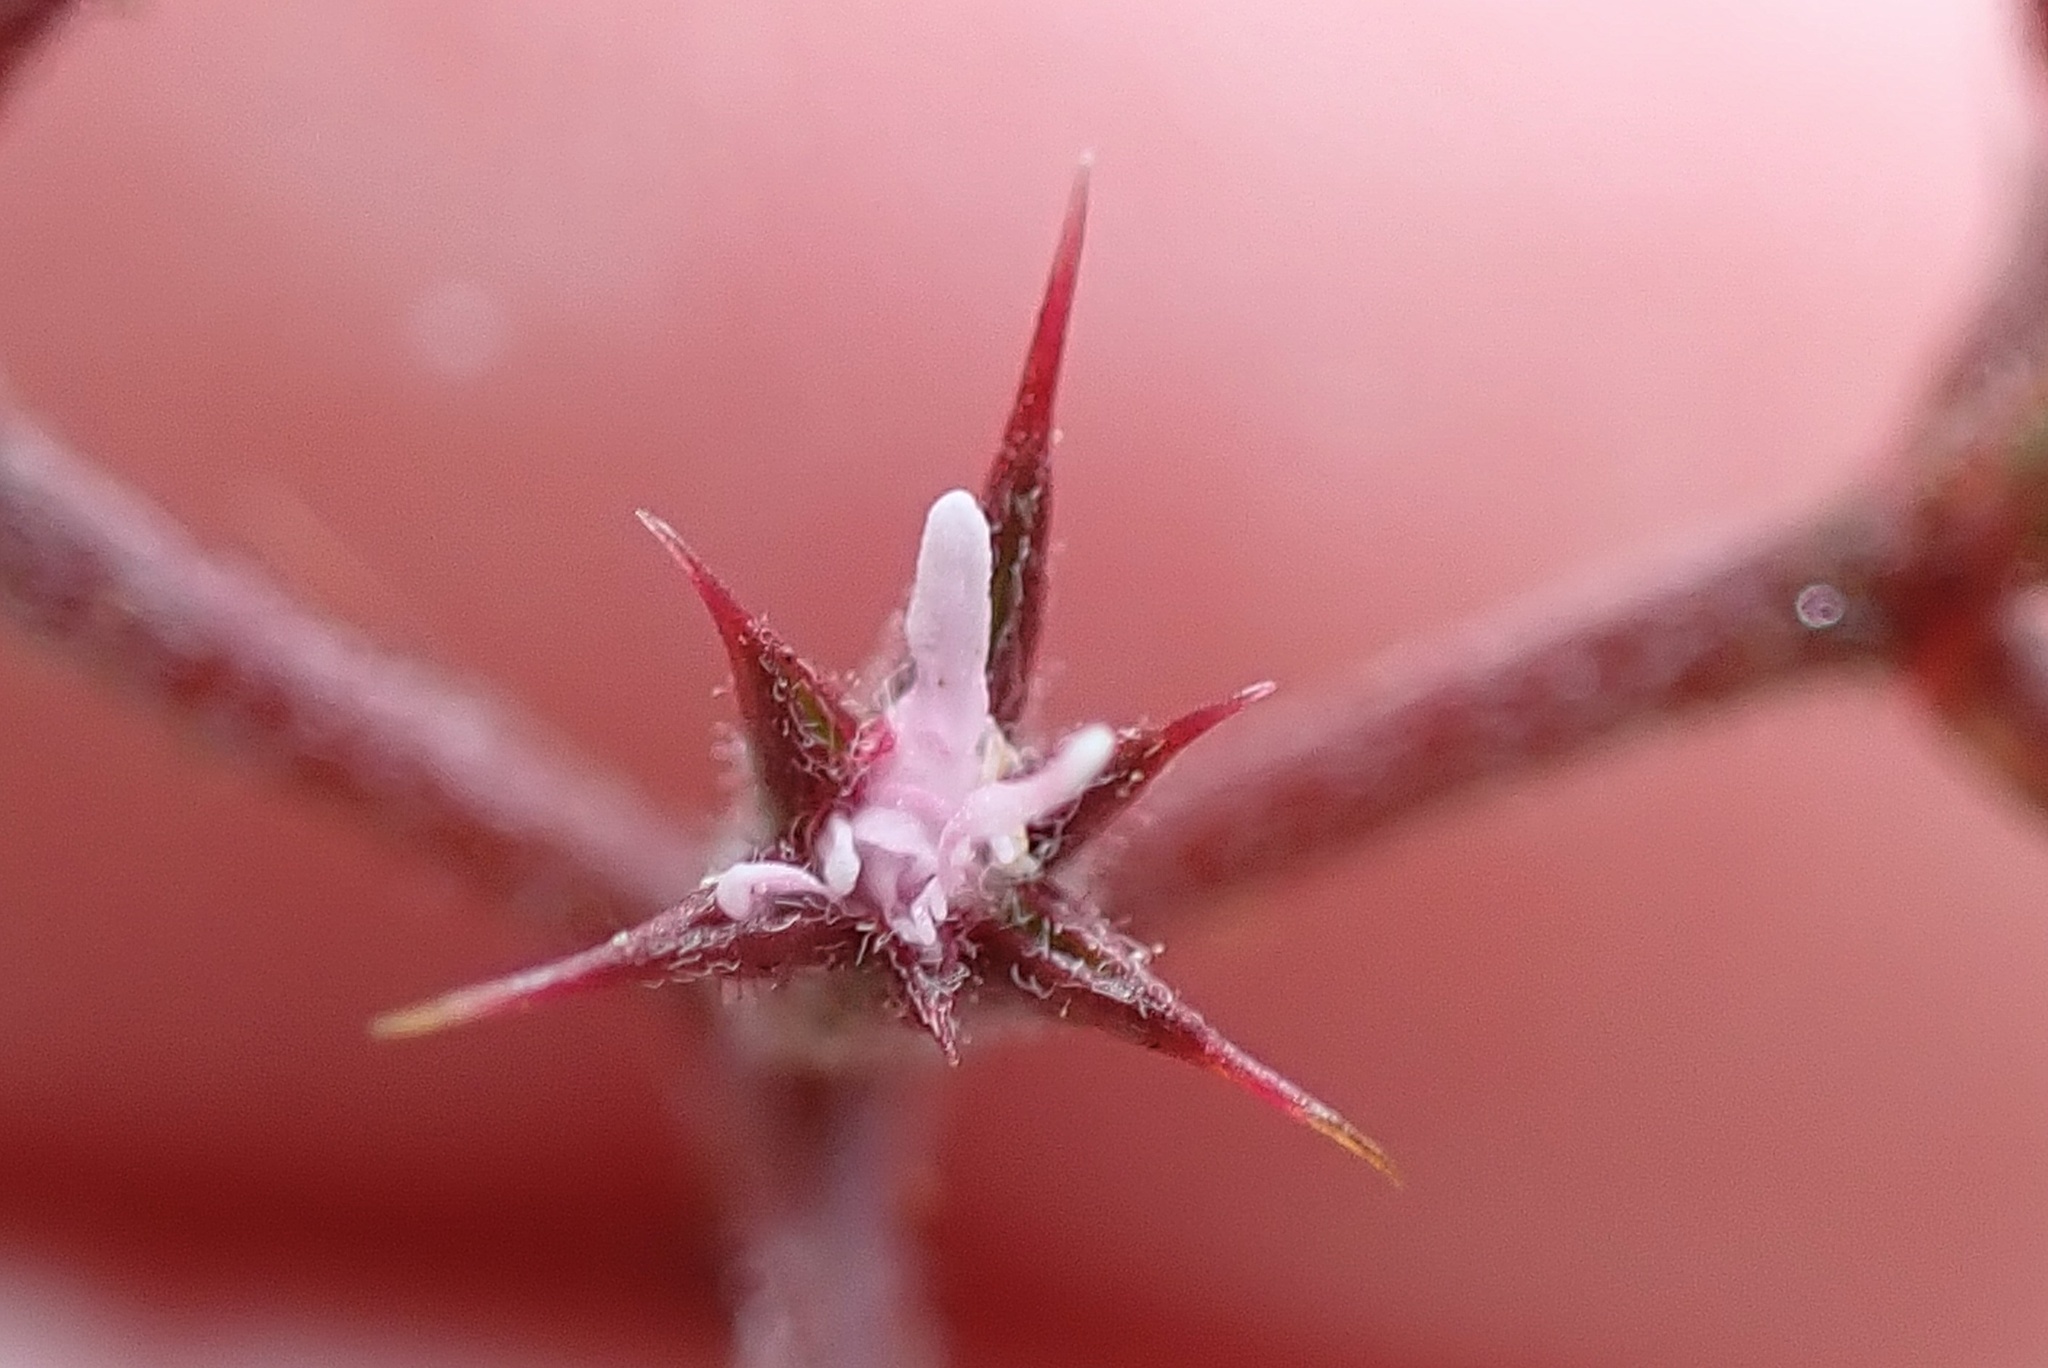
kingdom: Plantae
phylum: Tracheophyta
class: Magnoliopsida
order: Caryophyllales
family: Polygonaceae
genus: Chorizanthe
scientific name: Chorizanthe fimbriata
